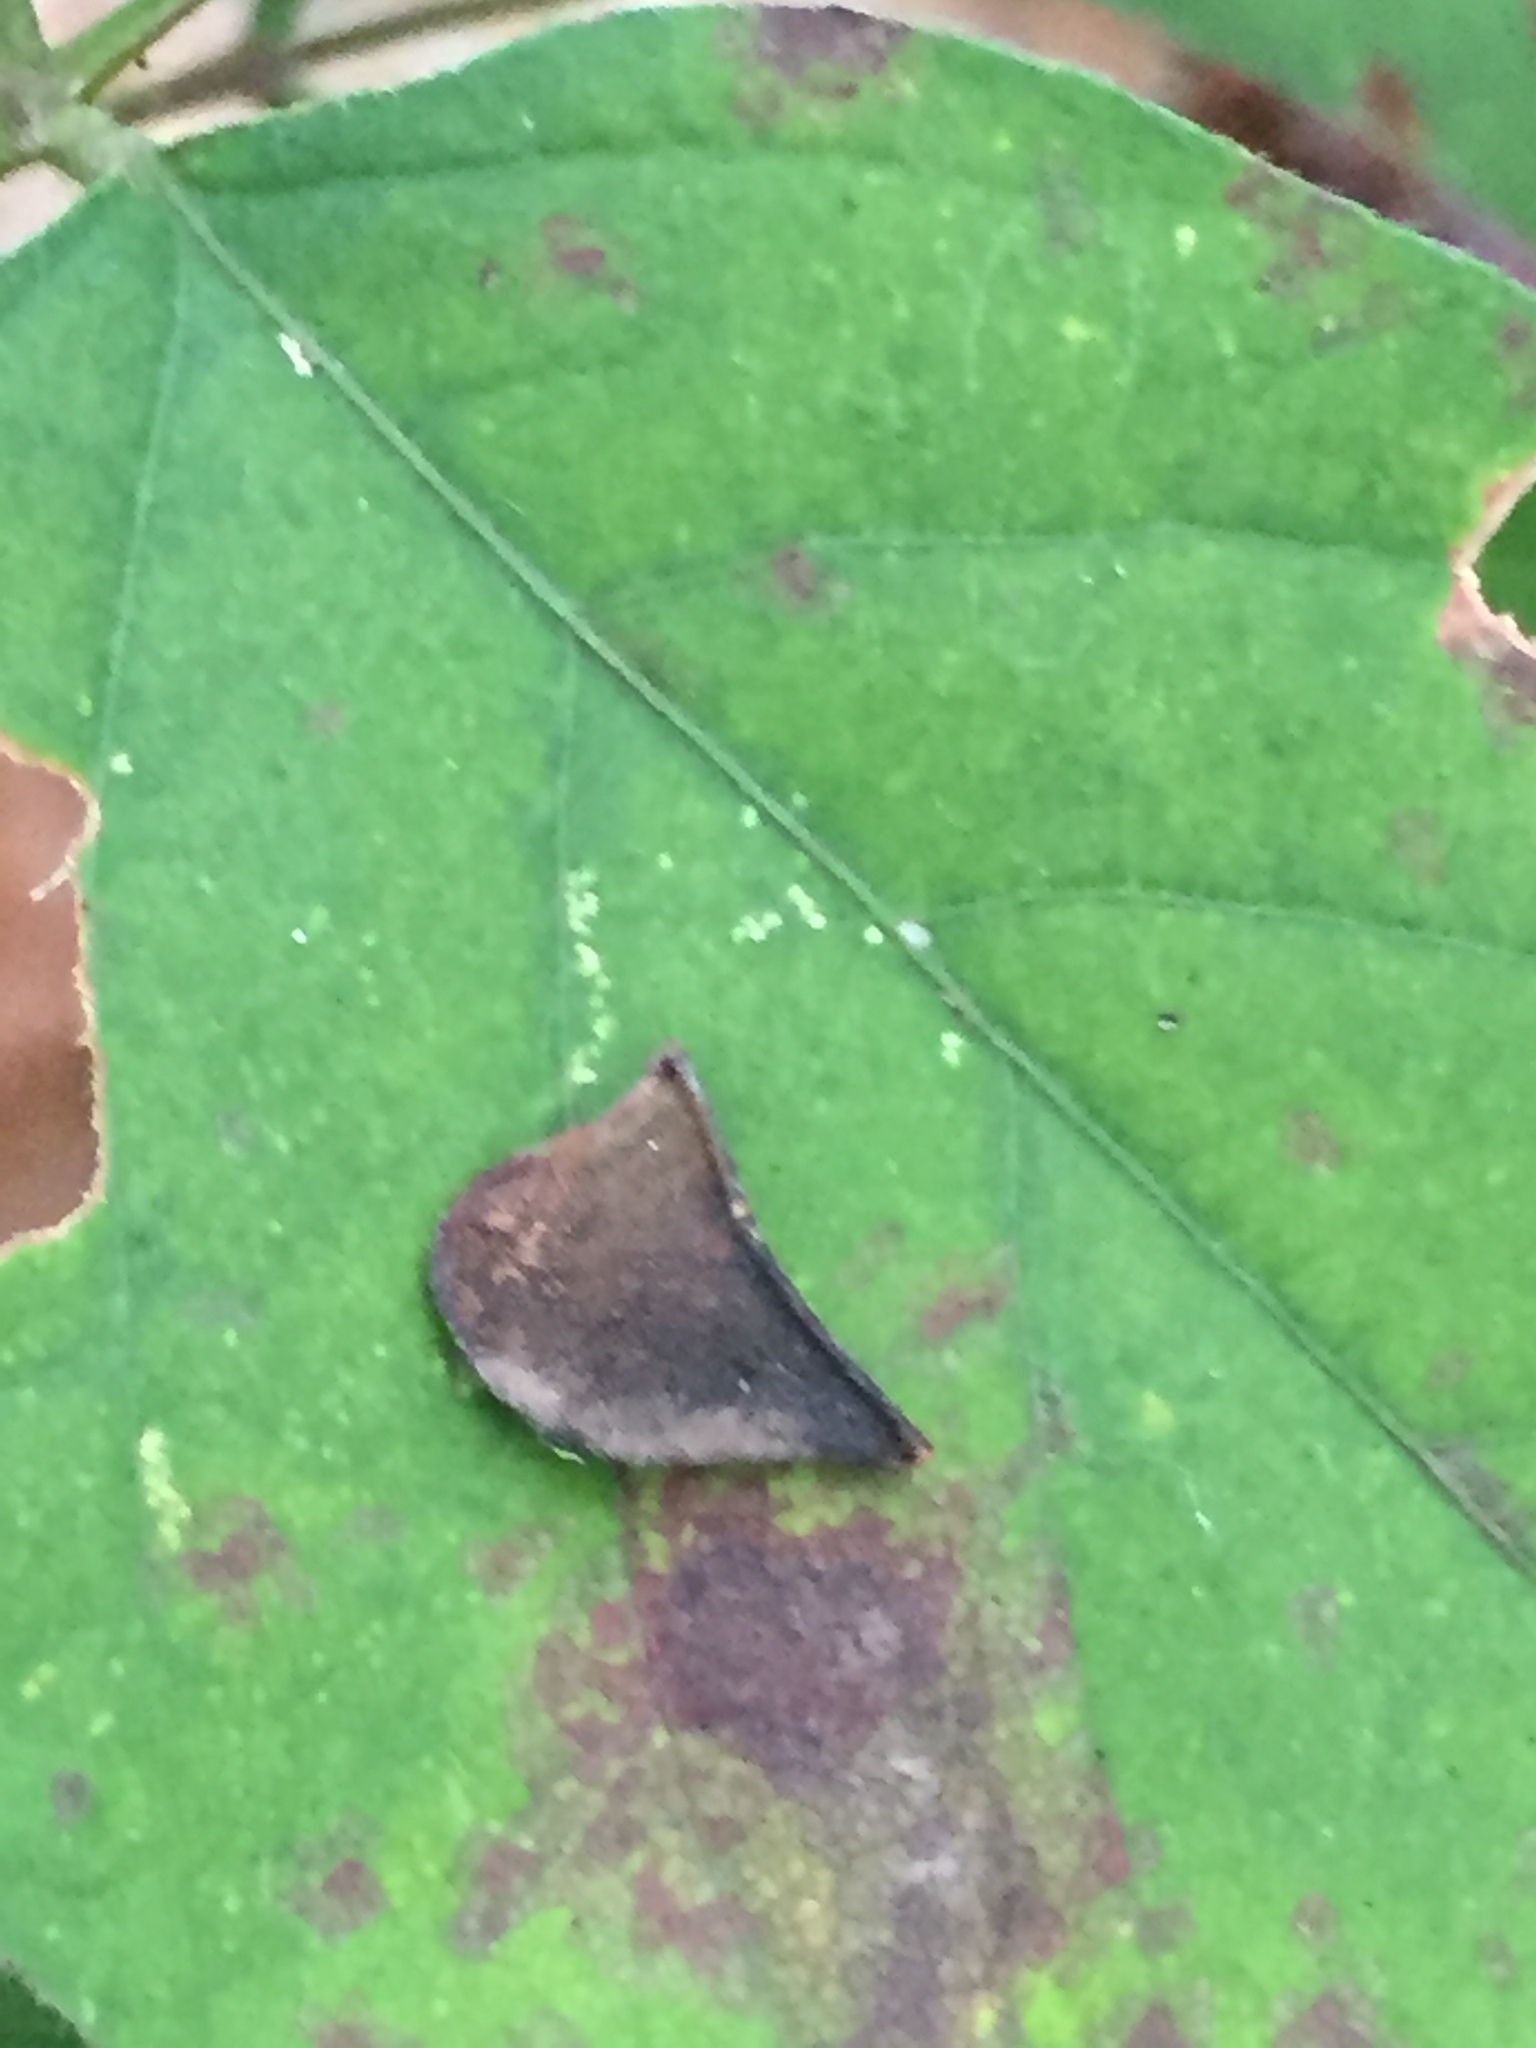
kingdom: Plantae
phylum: Tracheophyta
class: Magnoliopsida
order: Fabales
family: Fabaceae
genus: Hylodesmum
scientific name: Hylodesmum glutinosum
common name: Clustered-leaved tick-trefoil
